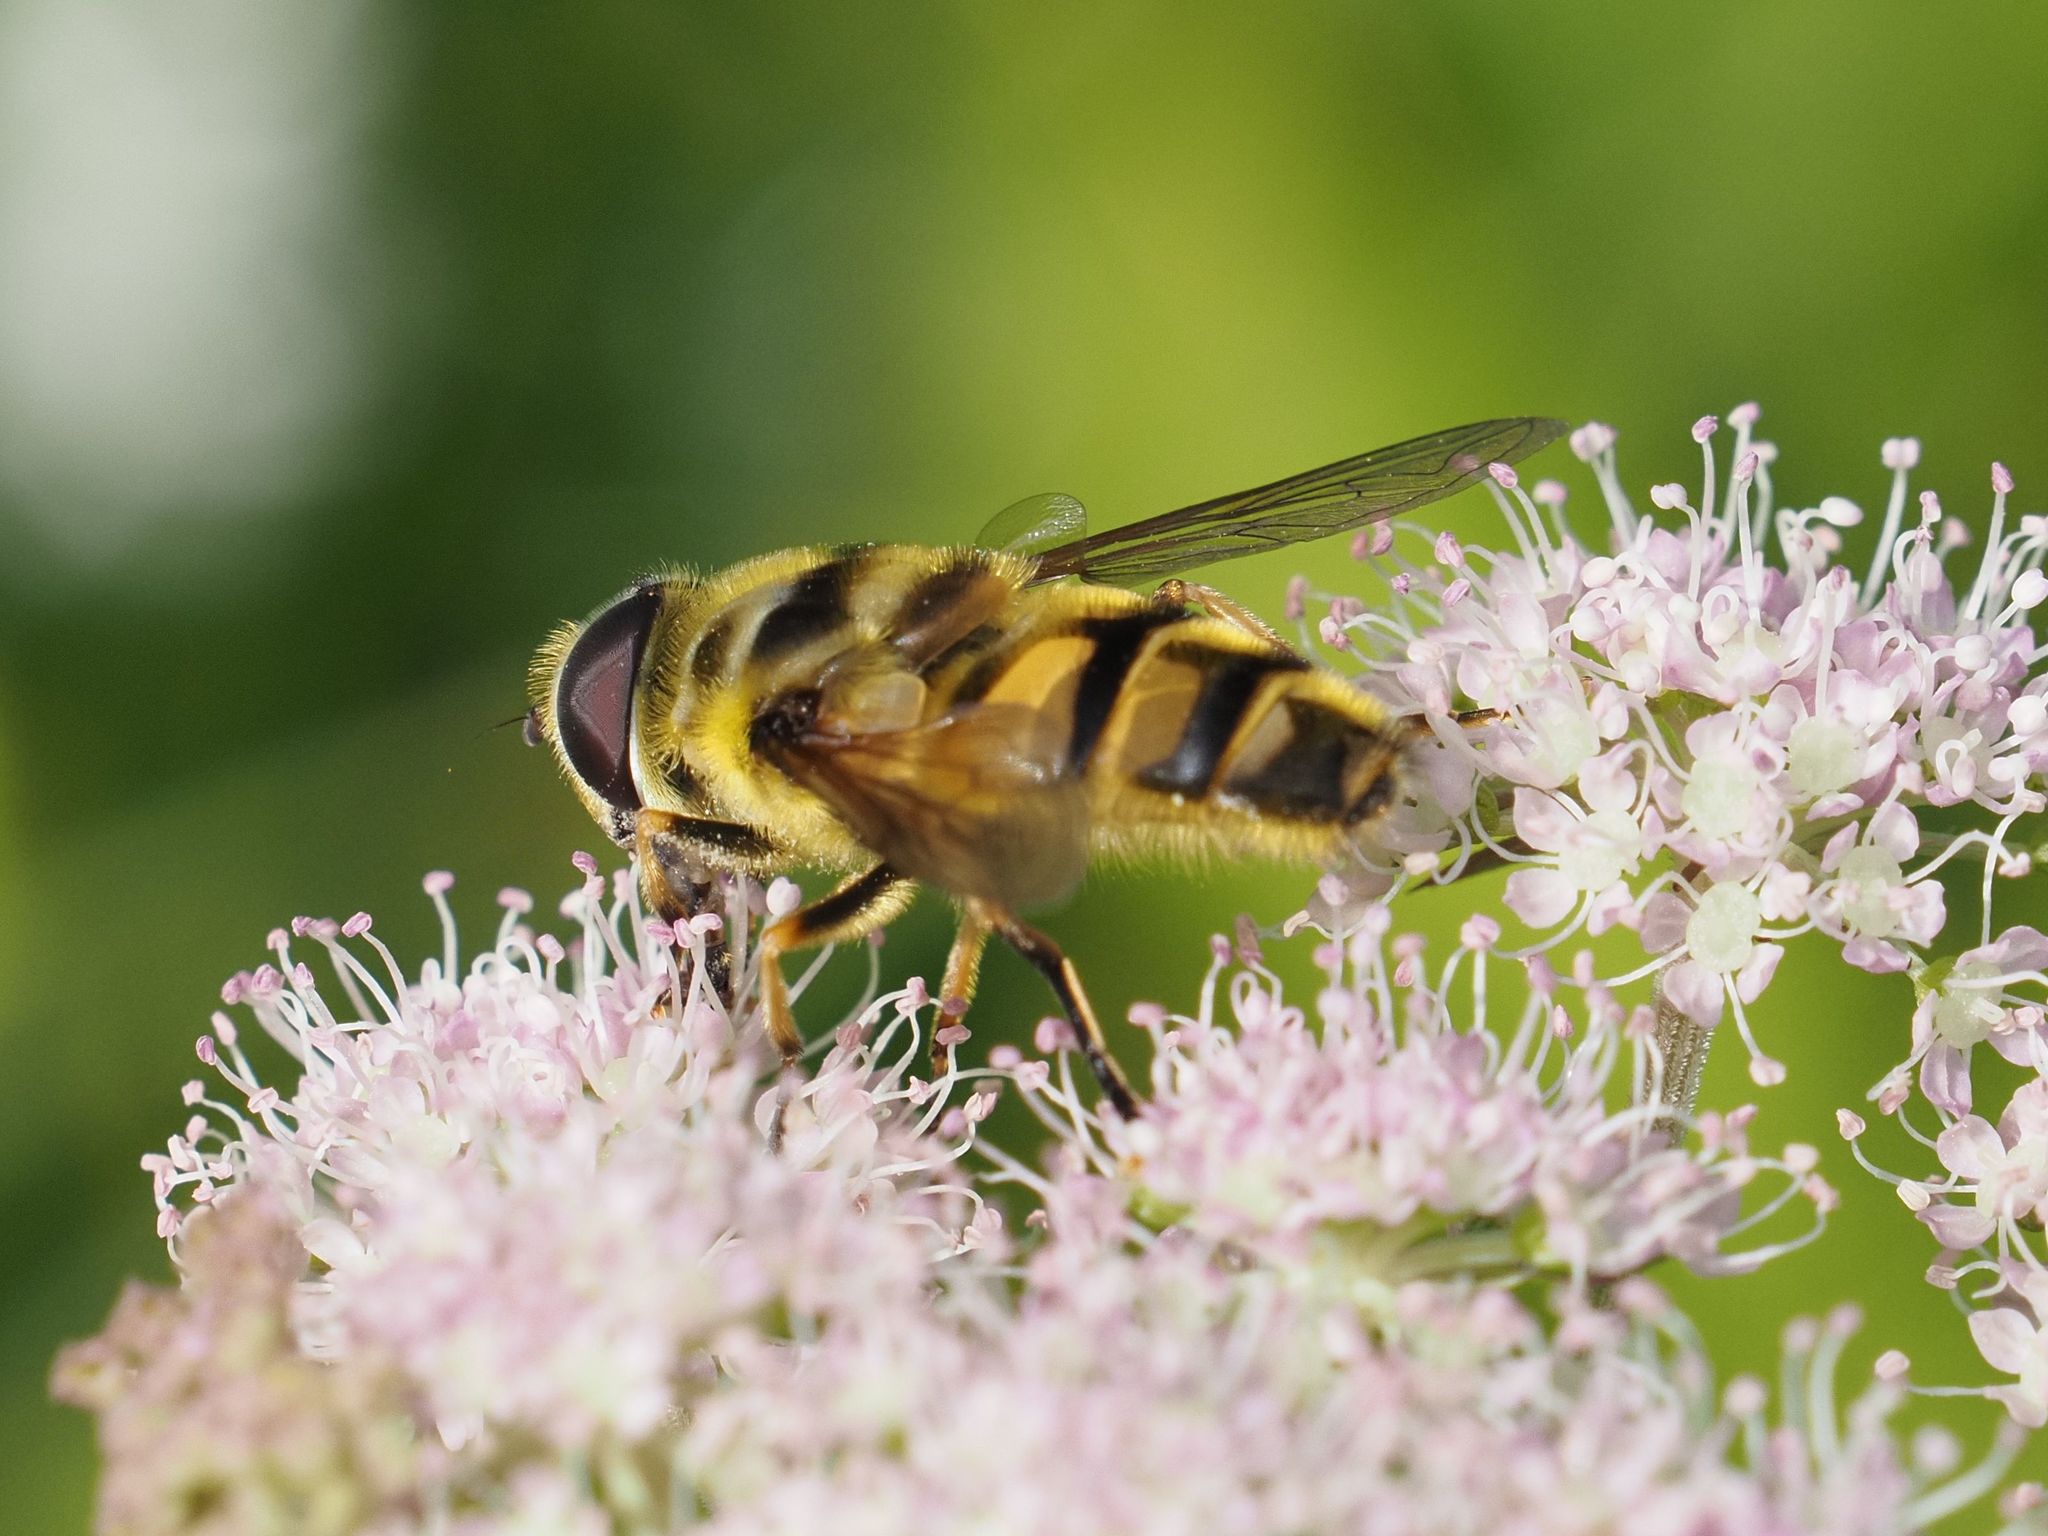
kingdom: Animalia
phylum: Arthropoda
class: Insecta
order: Diptera
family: Syrphidae
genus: Myathropa
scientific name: Myathropa florea
